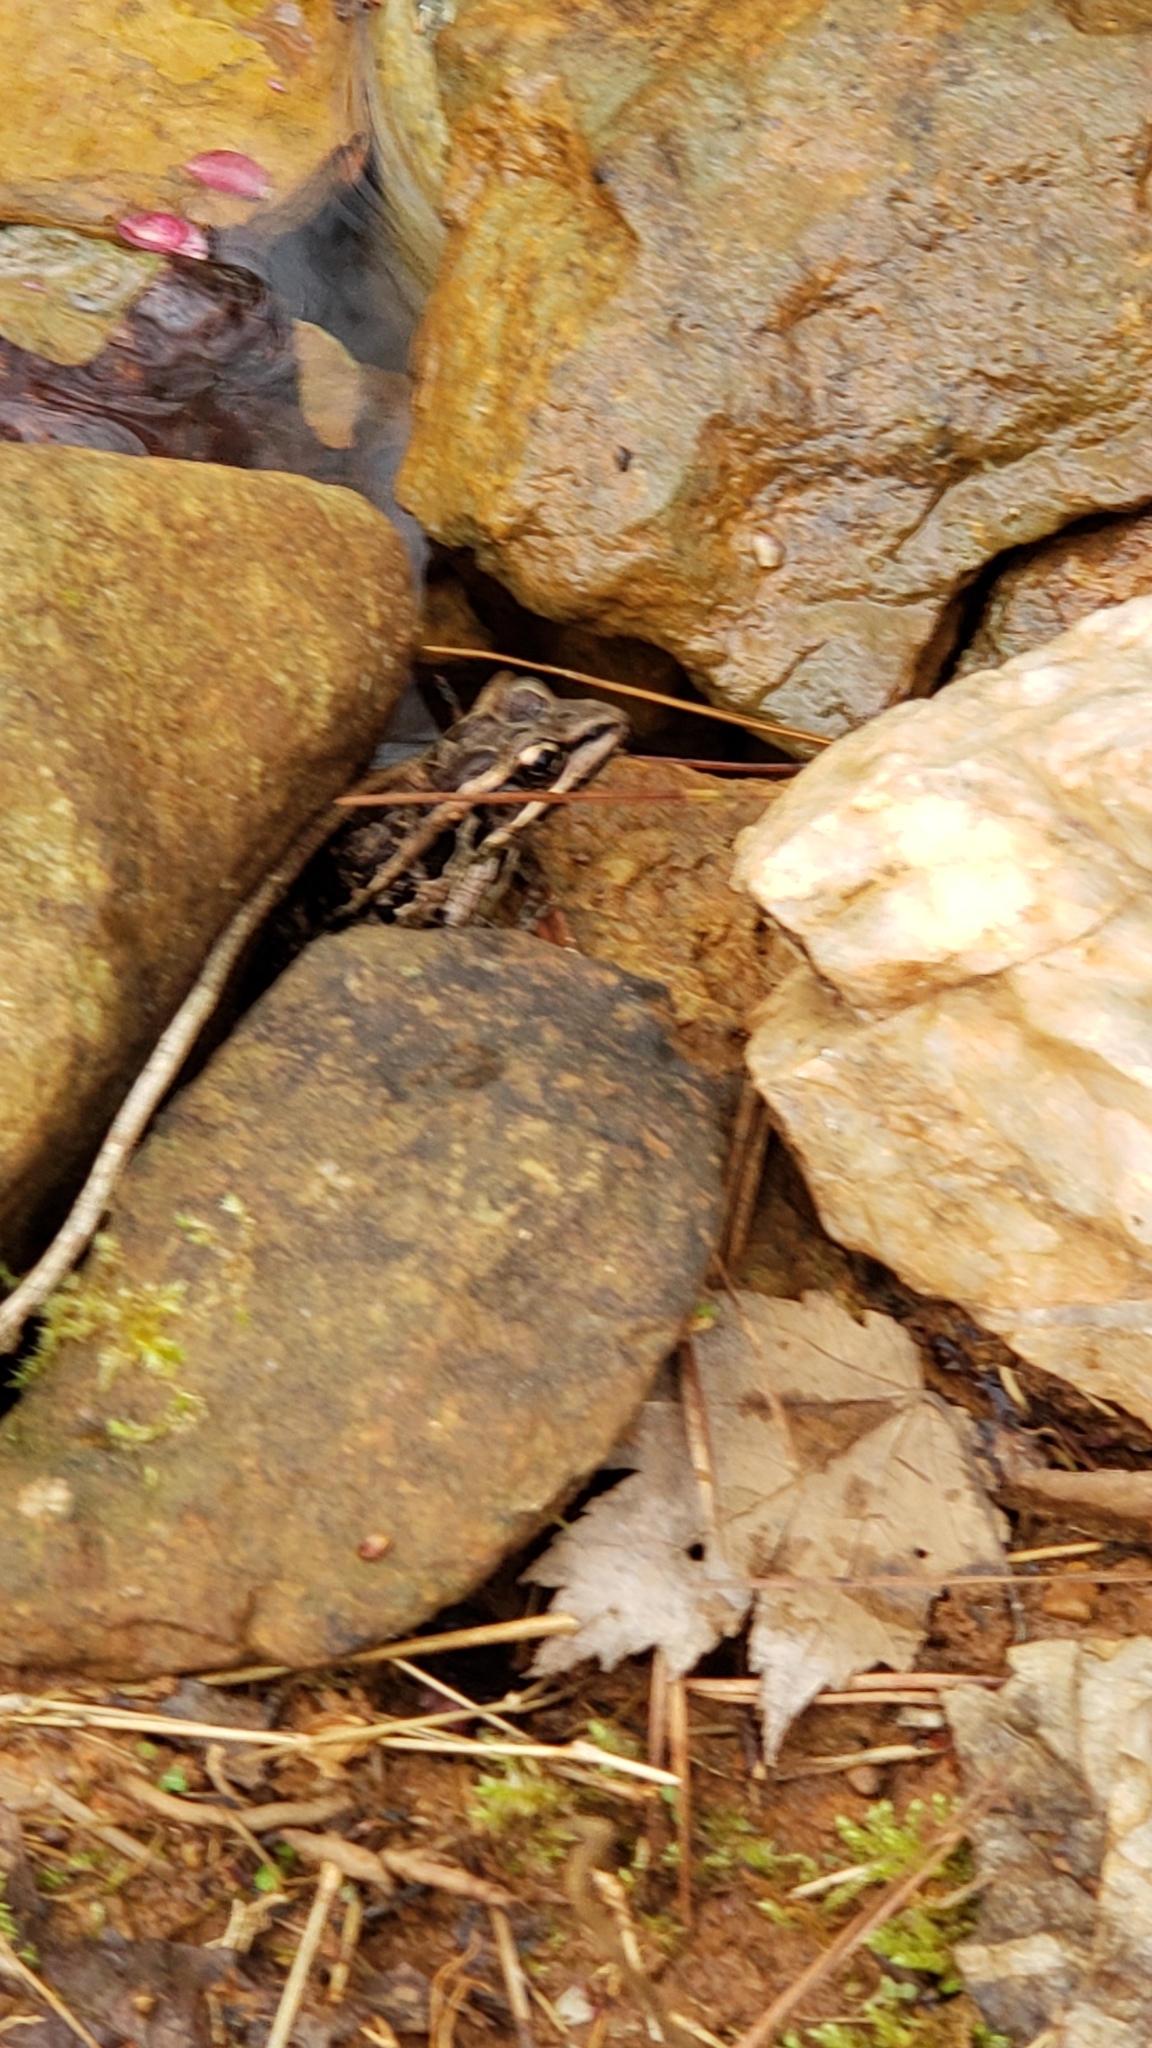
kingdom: Animalia
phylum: Chordata
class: Amphibia
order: Anura
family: Ranidae
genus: Lithobates
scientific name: Lithobates palustris
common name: Pickerel frog
